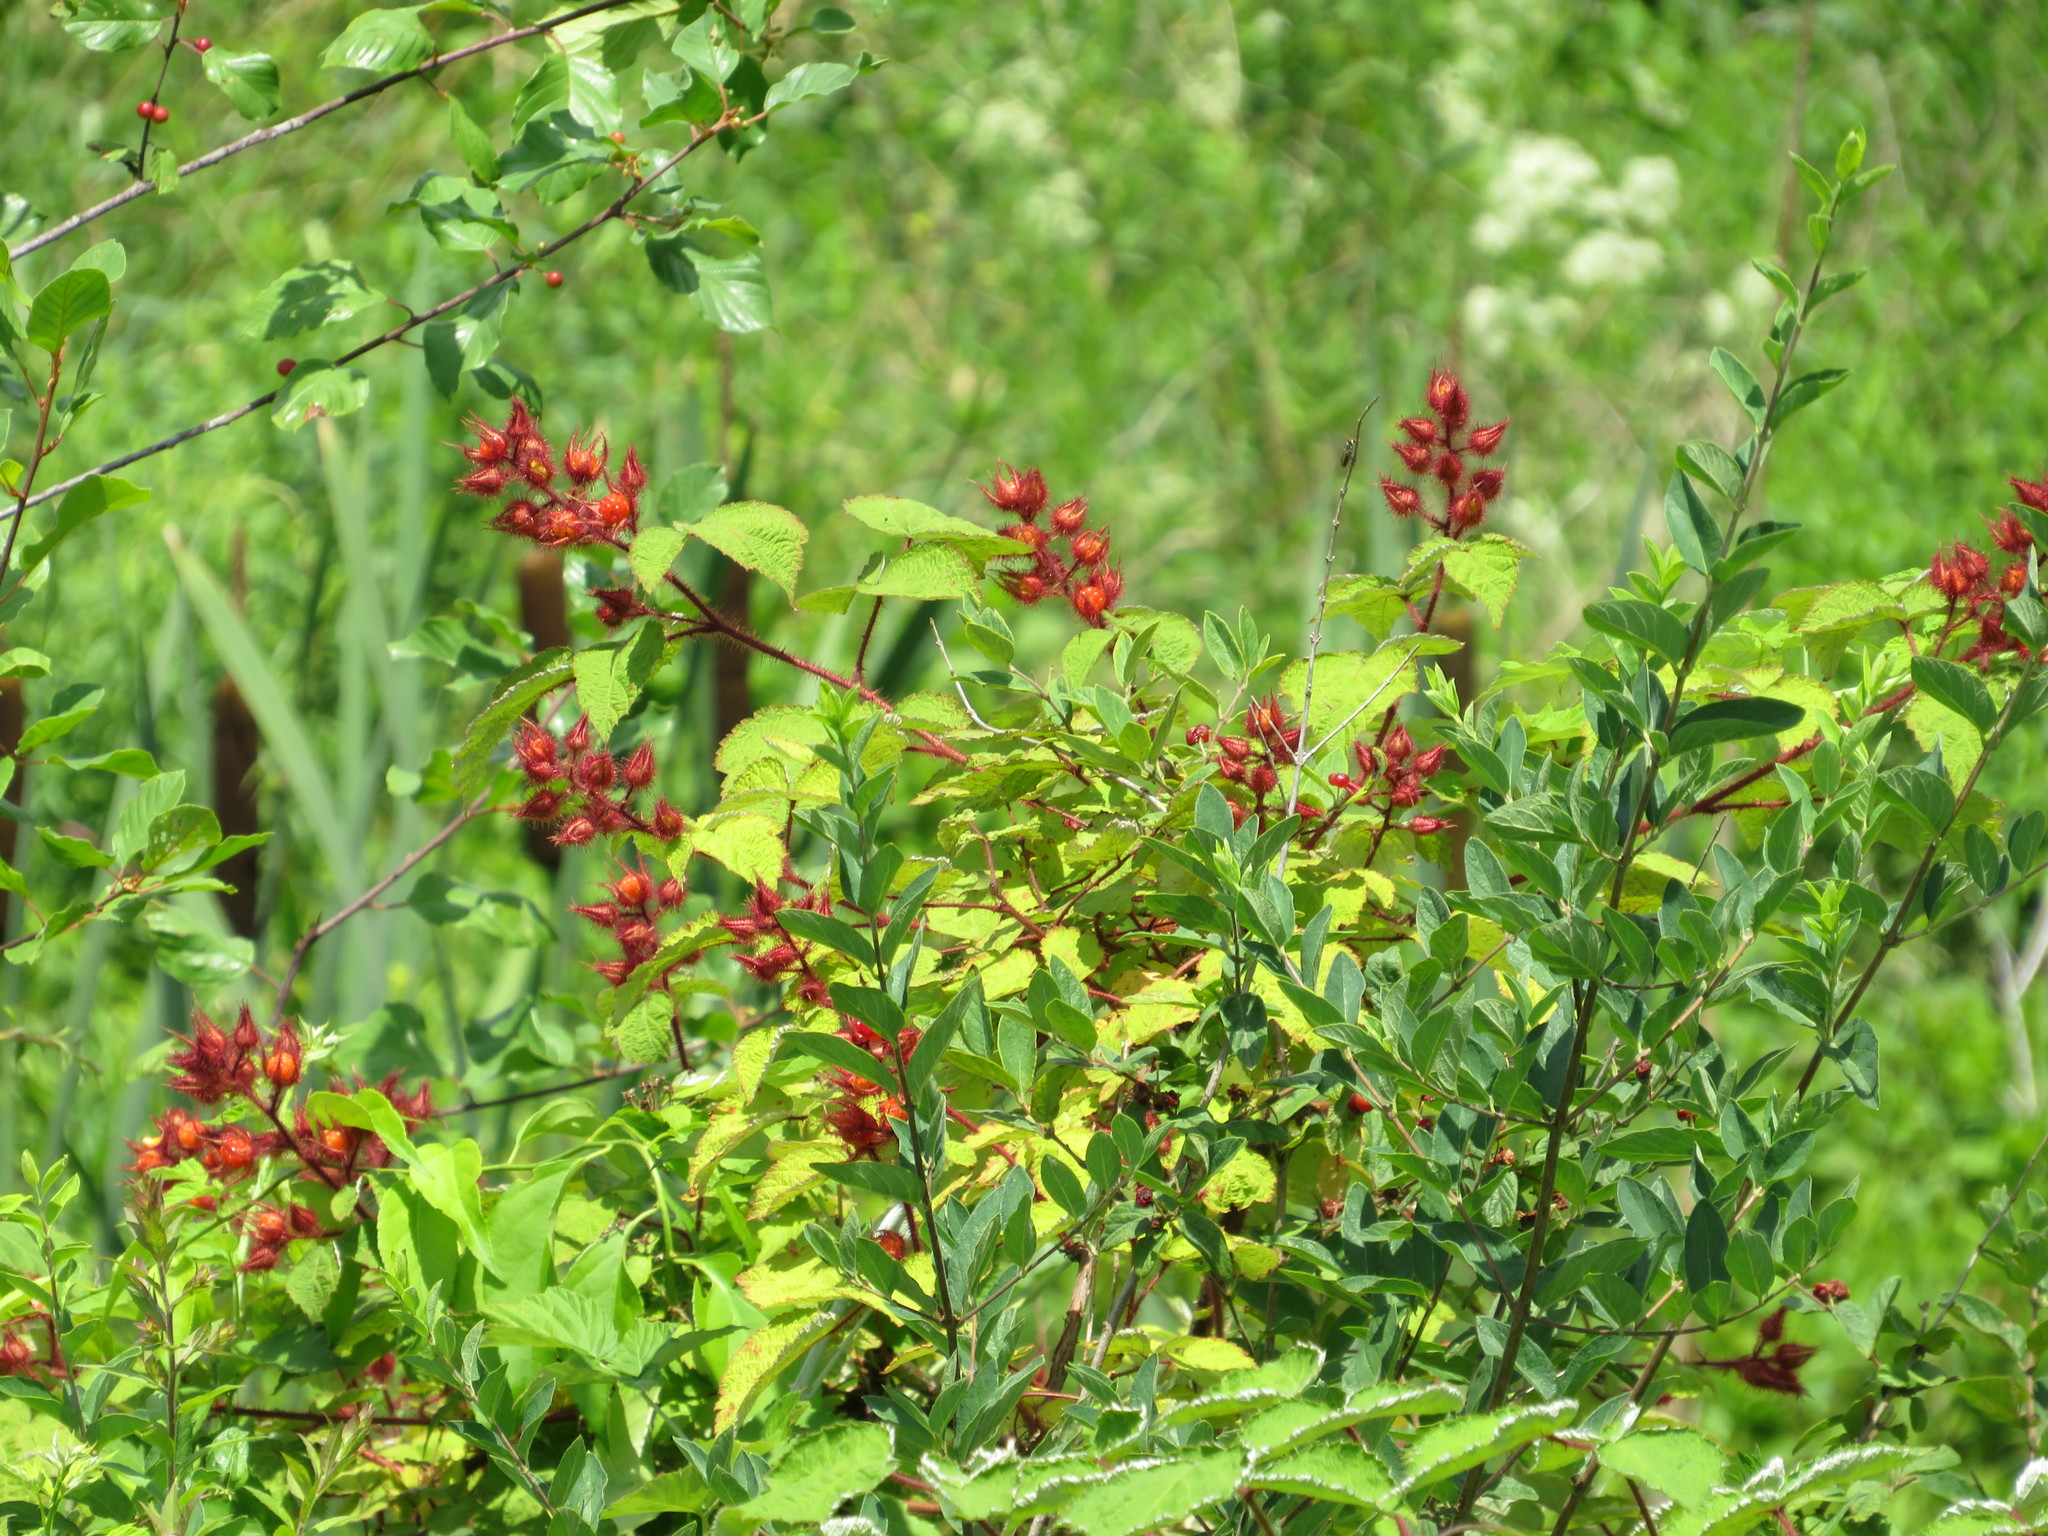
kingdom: Plantae
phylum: Tracheophyta
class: Magnoliopsida
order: Rosales
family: Rosaceae
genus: Rubus
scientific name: Rubus phoenicolasius
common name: Japanese wineberry
